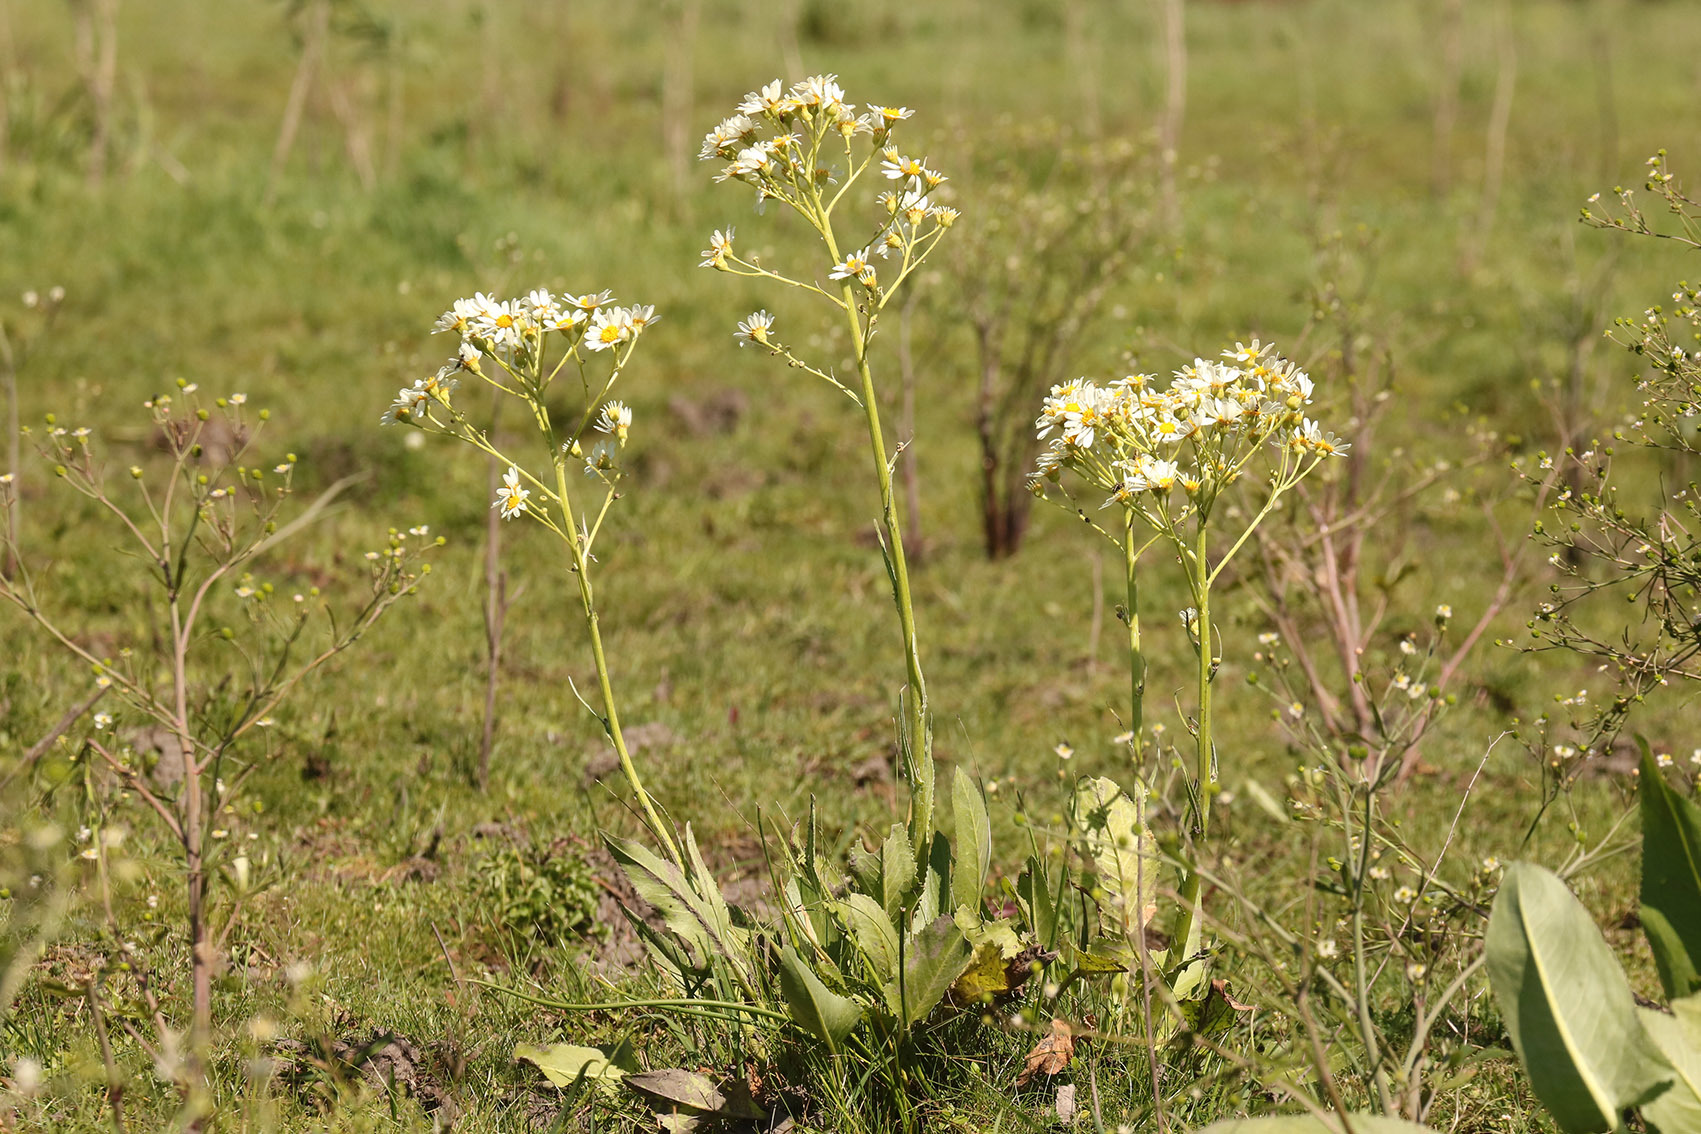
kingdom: Plantae
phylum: Tracheophyta
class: Magnoliopsida
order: Asterales
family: Asteraceae
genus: Senecio
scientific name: Senecio bonariensis
